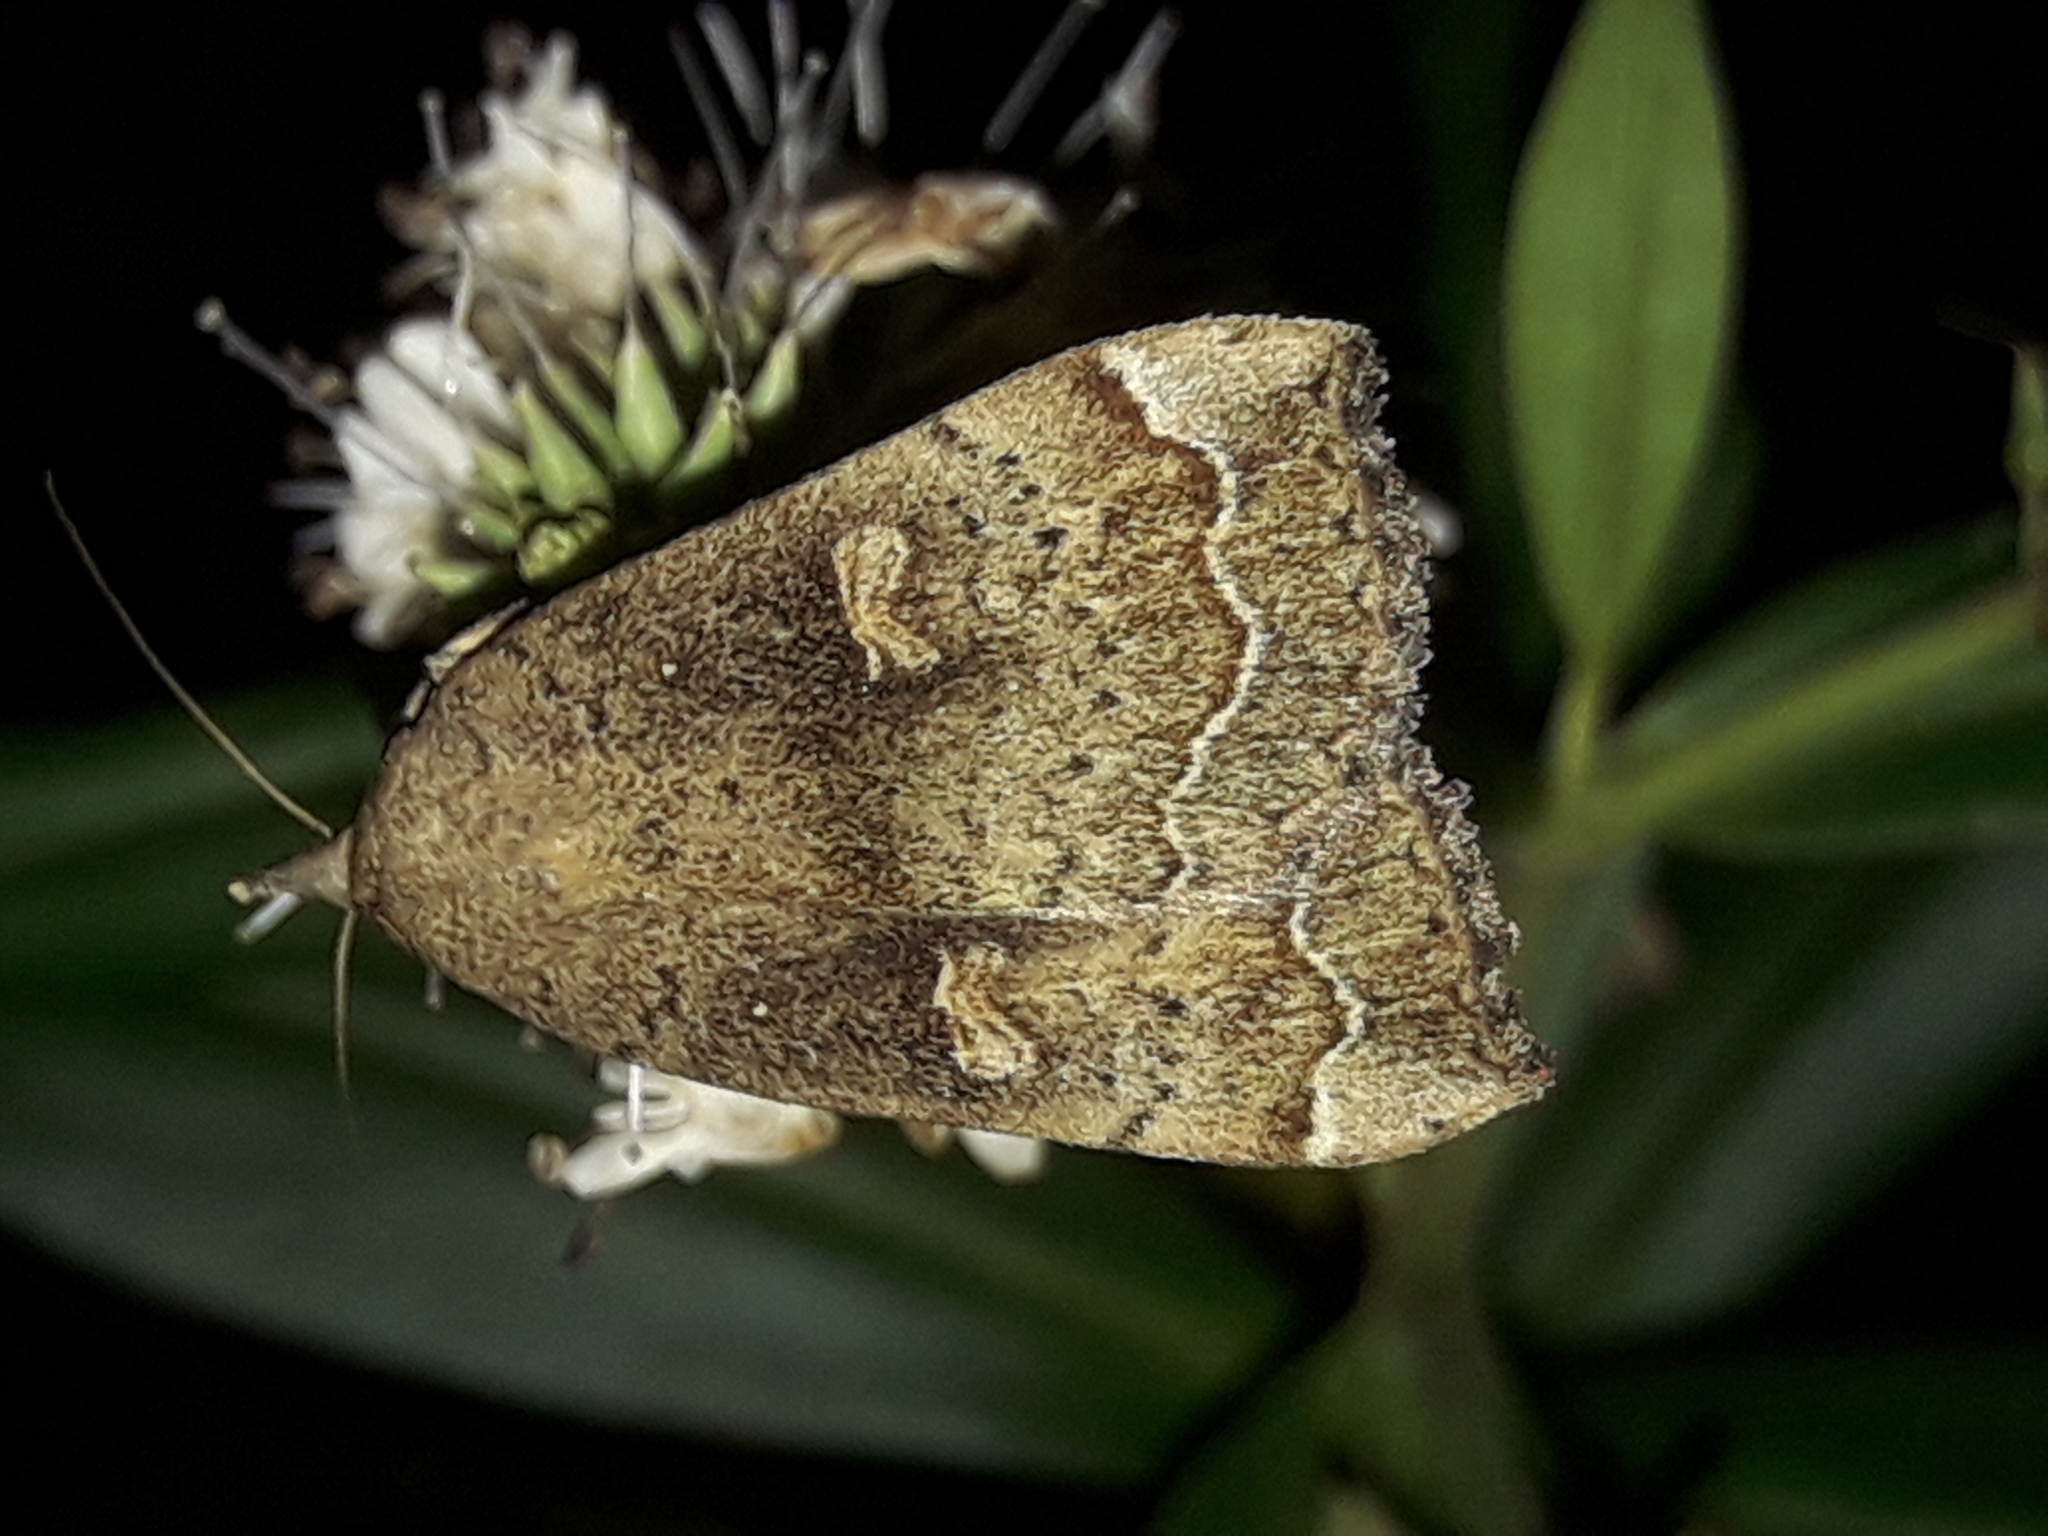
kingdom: Animalia
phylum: Arthropoda
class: Insecta
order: Lepidoptera
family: Erebidae
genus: Rhapsa
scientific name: Rhapsa scotosialis
